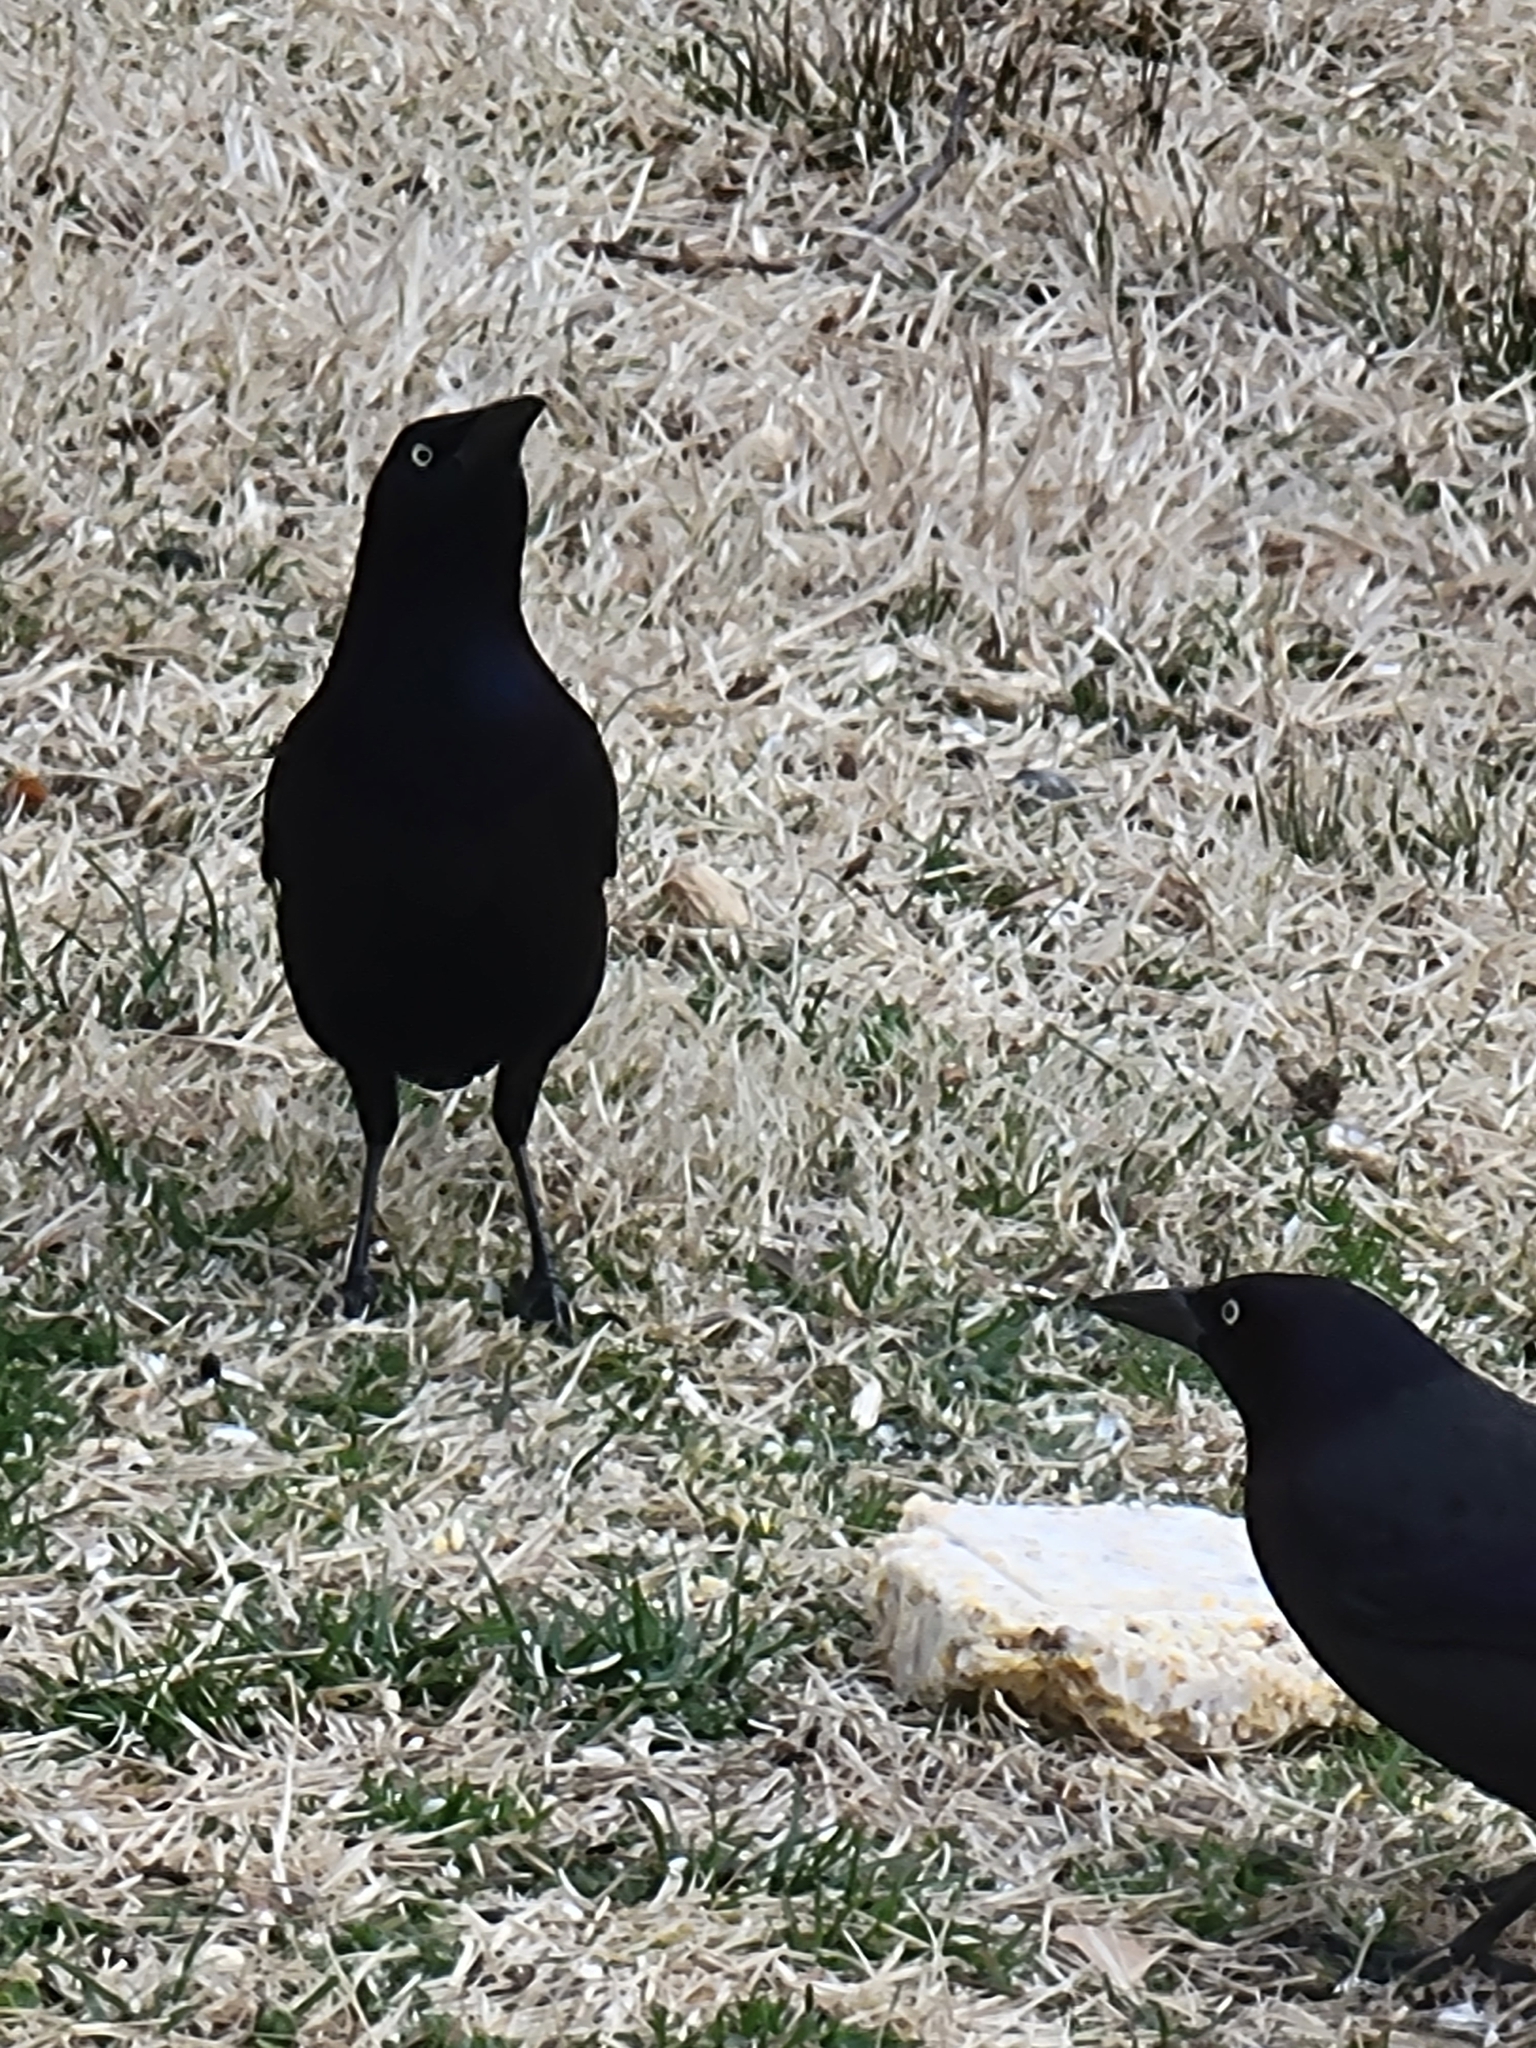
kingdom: Animalia
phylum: Chordata
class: Aves
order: Passeriformes
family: Icteridae
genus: Quiscalus
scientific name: Quiscalus quiscula
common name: Common grackle
